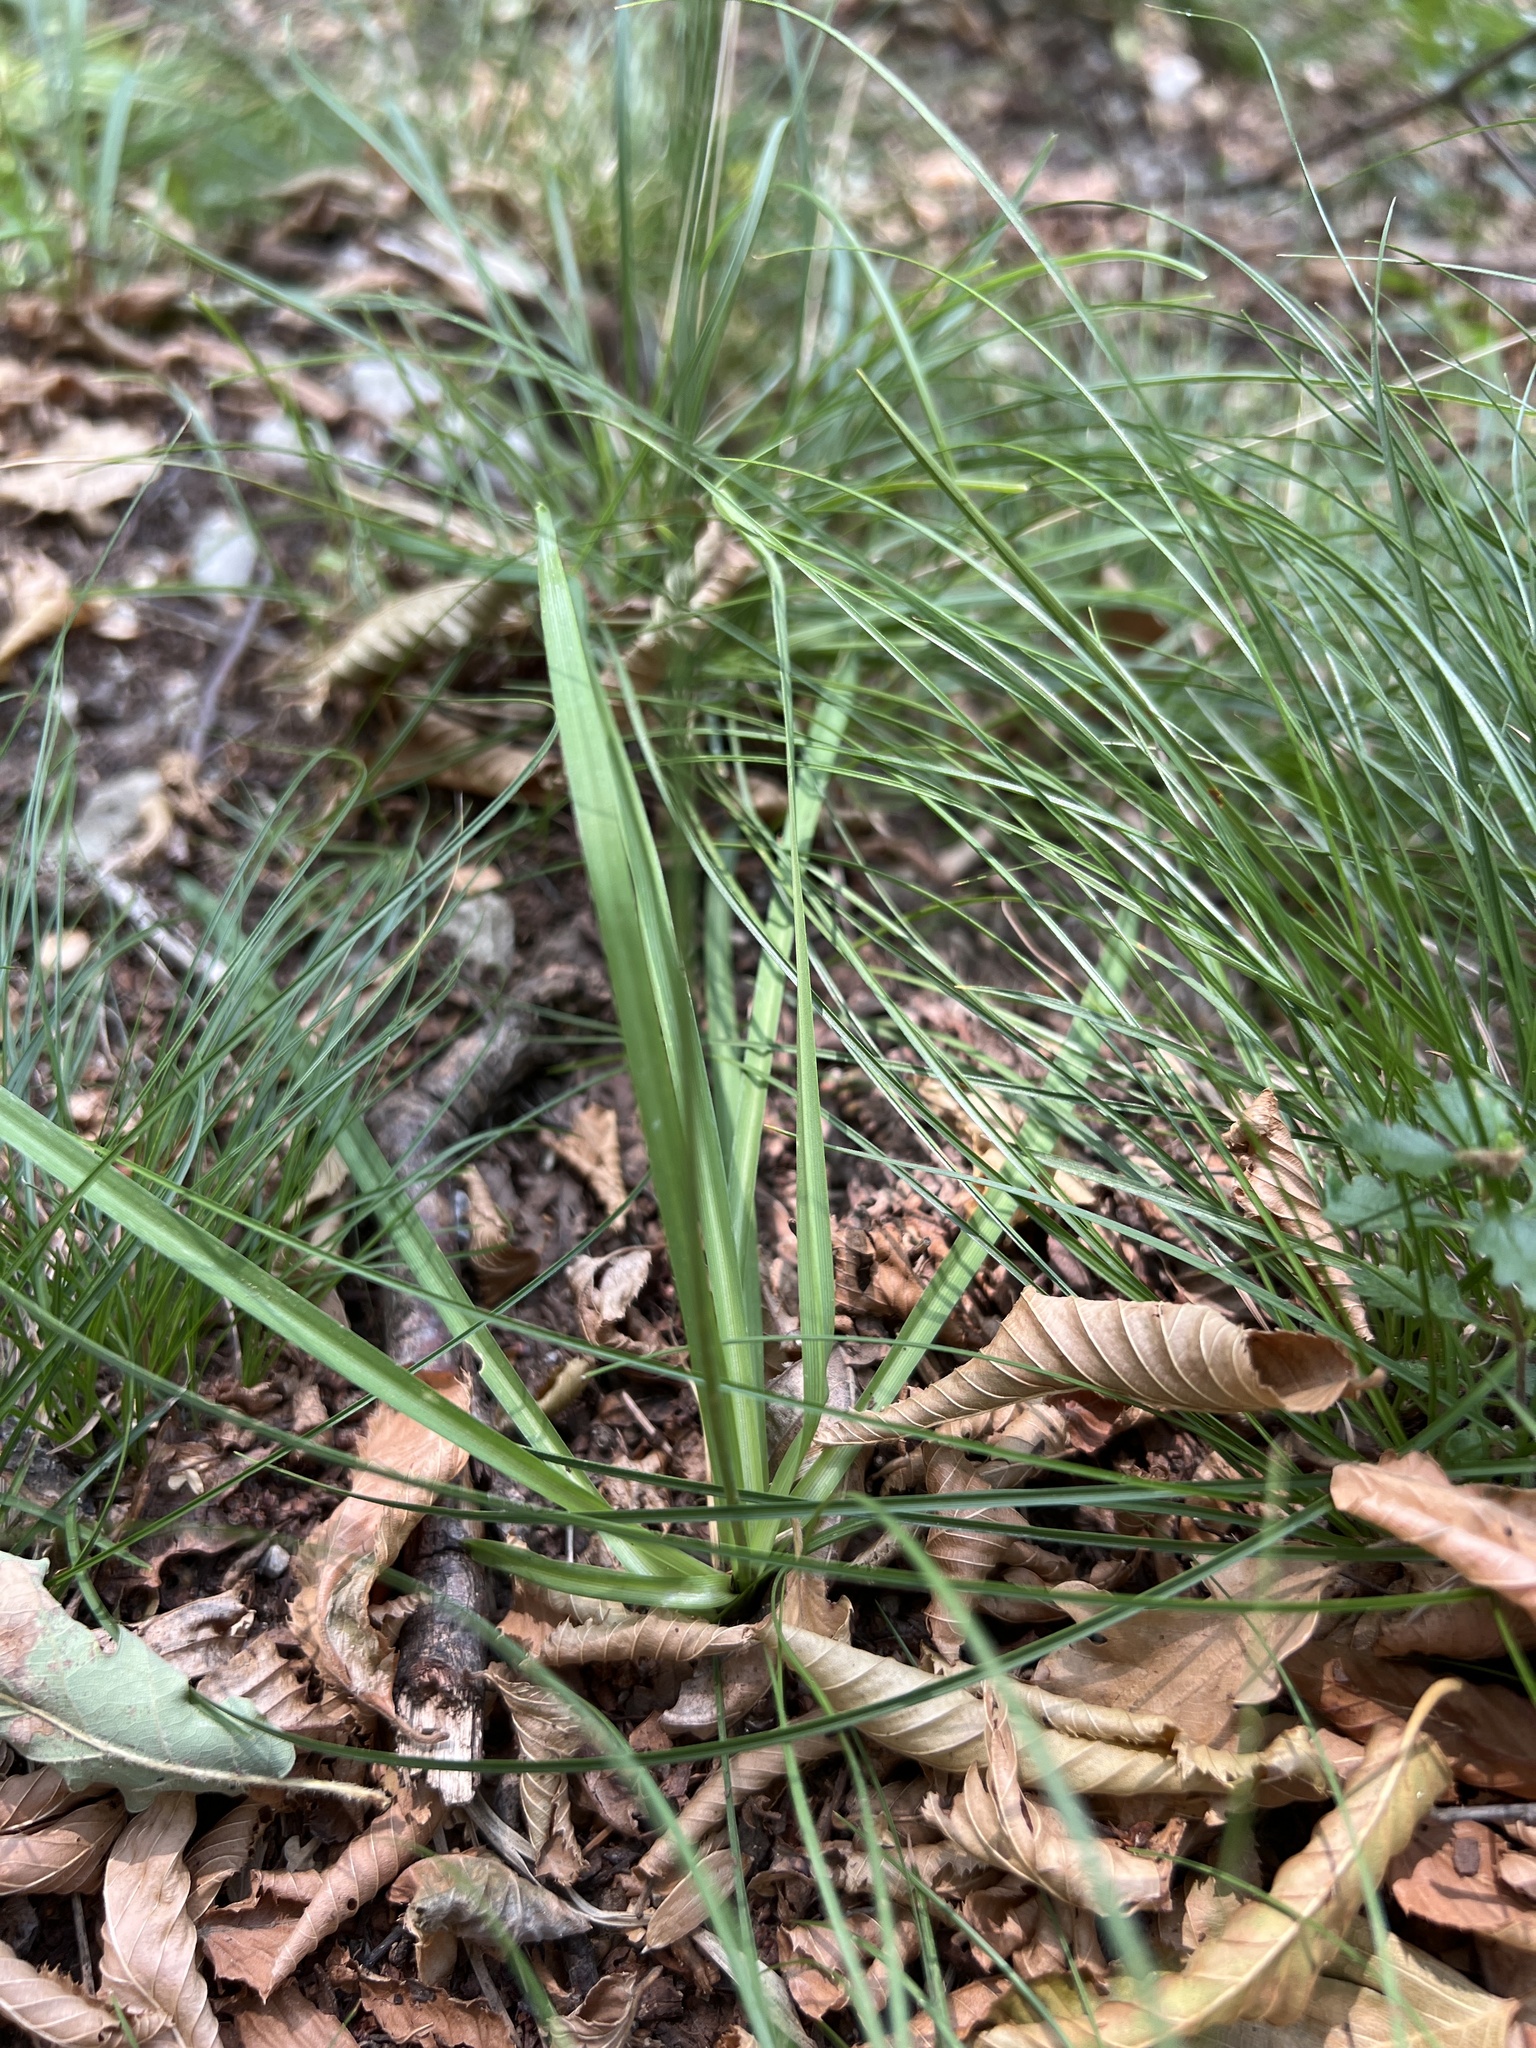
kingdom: Plantae
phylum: Tracheophyta
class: Liliopsida
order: Asparagales
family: Asparagaceae
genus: Anthericum
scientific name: Anthericum ramosum
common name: Branched st. bernard's-lily
